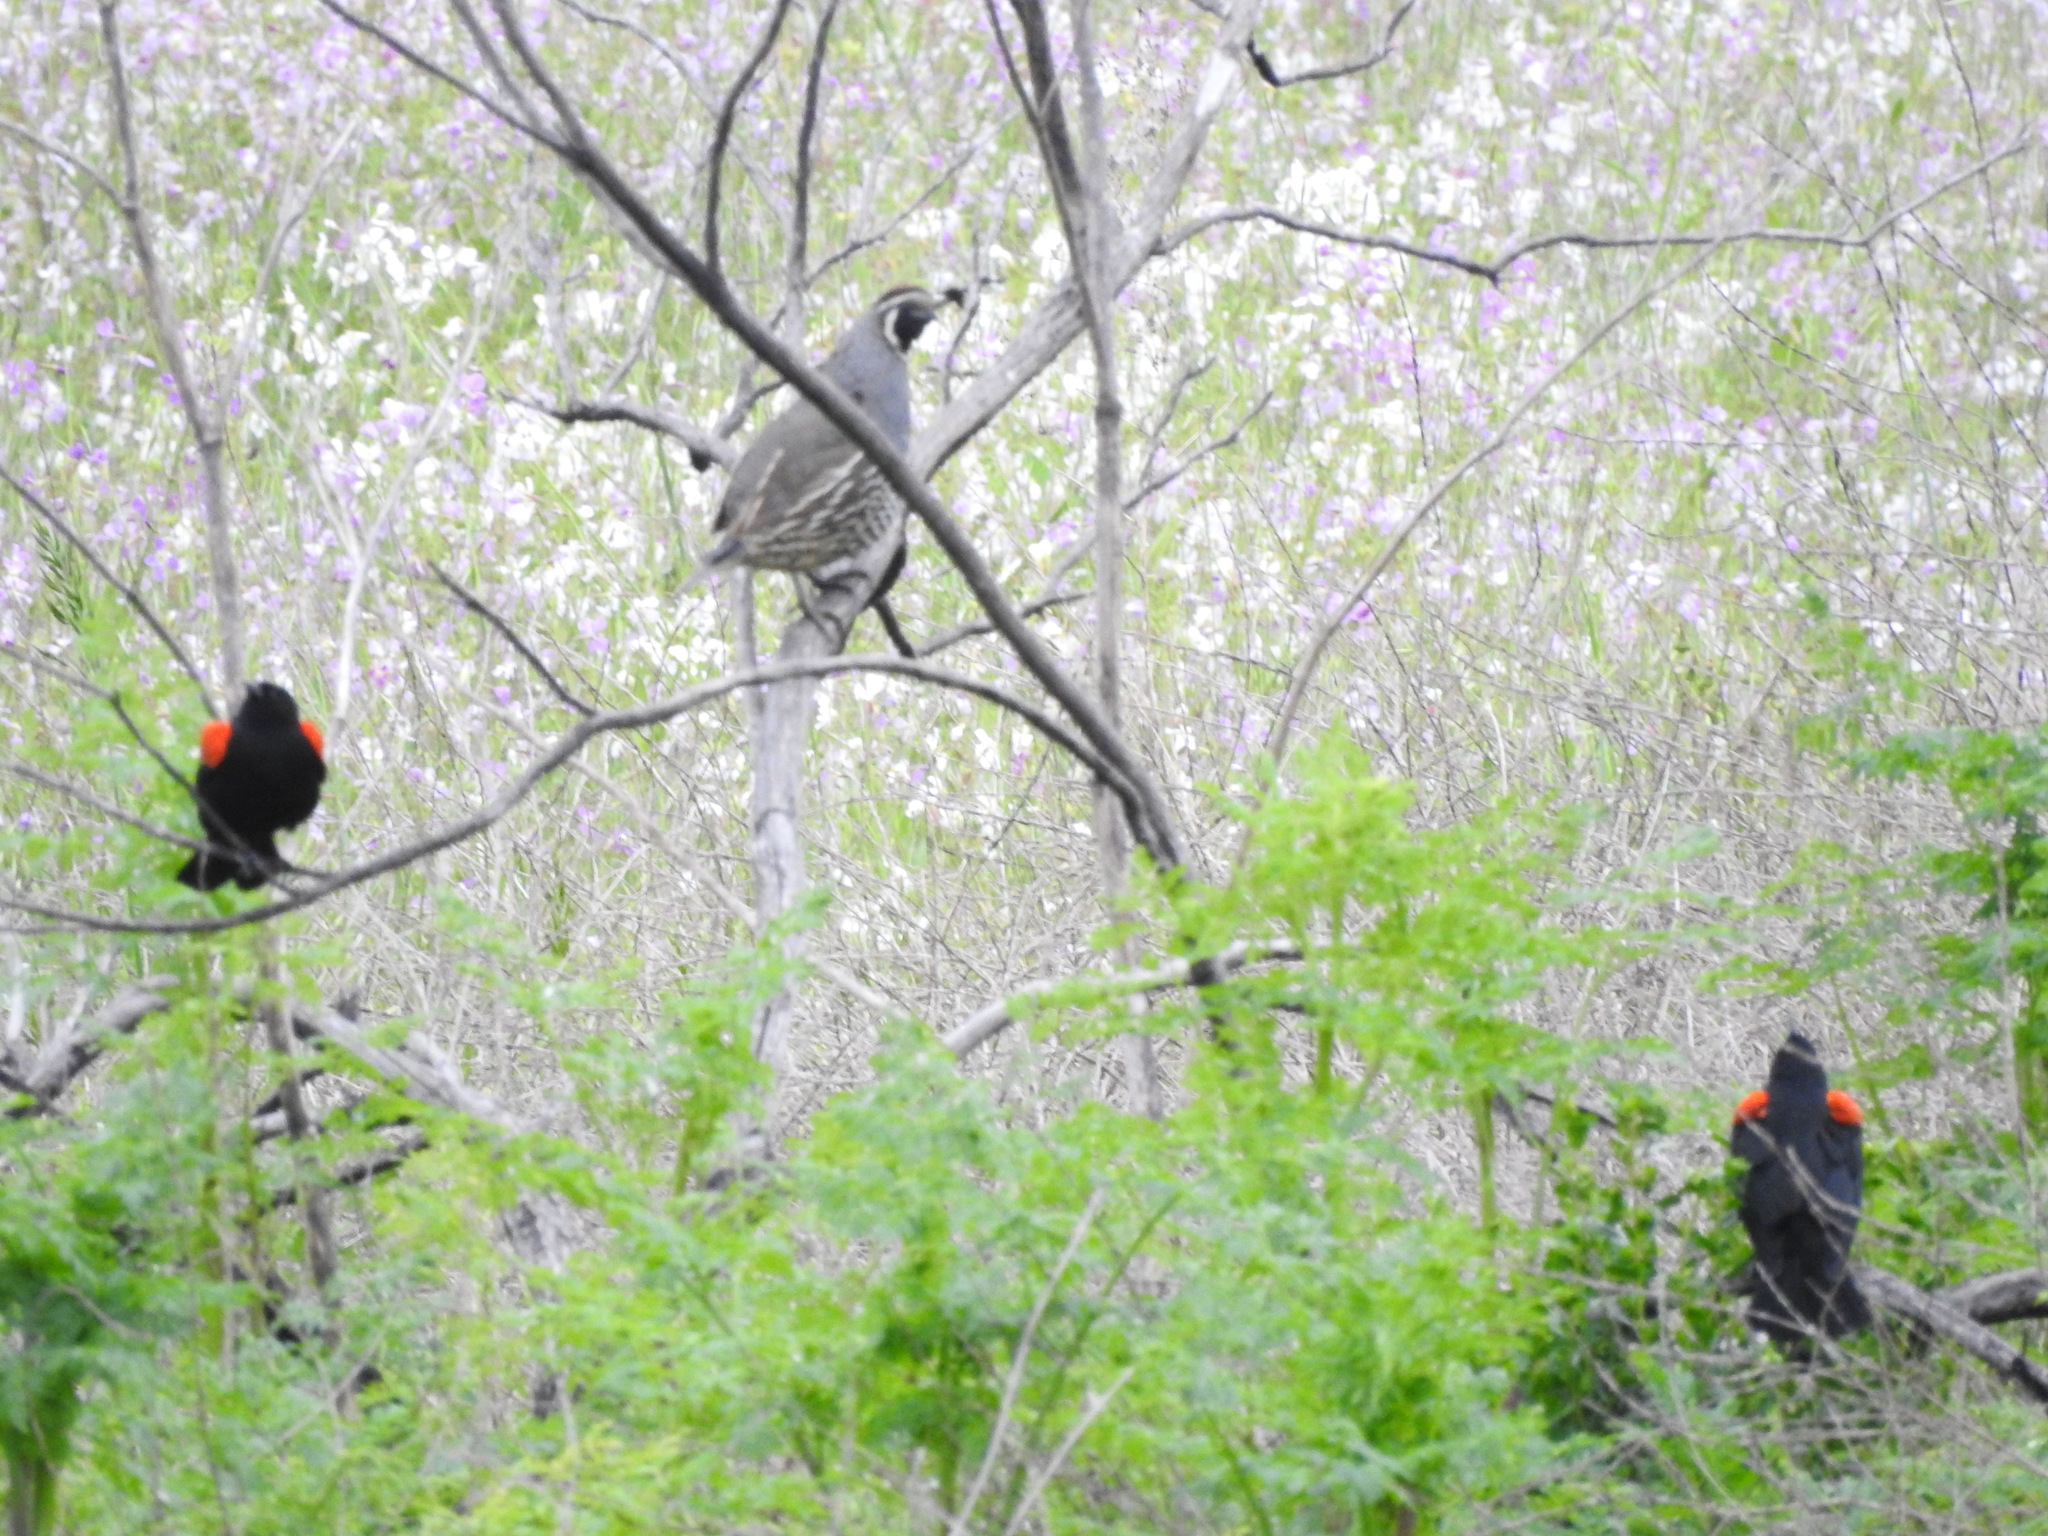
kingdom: Animalia
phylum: Chordata
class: Aves
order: Galliformes
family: Odontophoridae
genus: Callipepla
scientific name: Callipepla californica
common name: California quail
